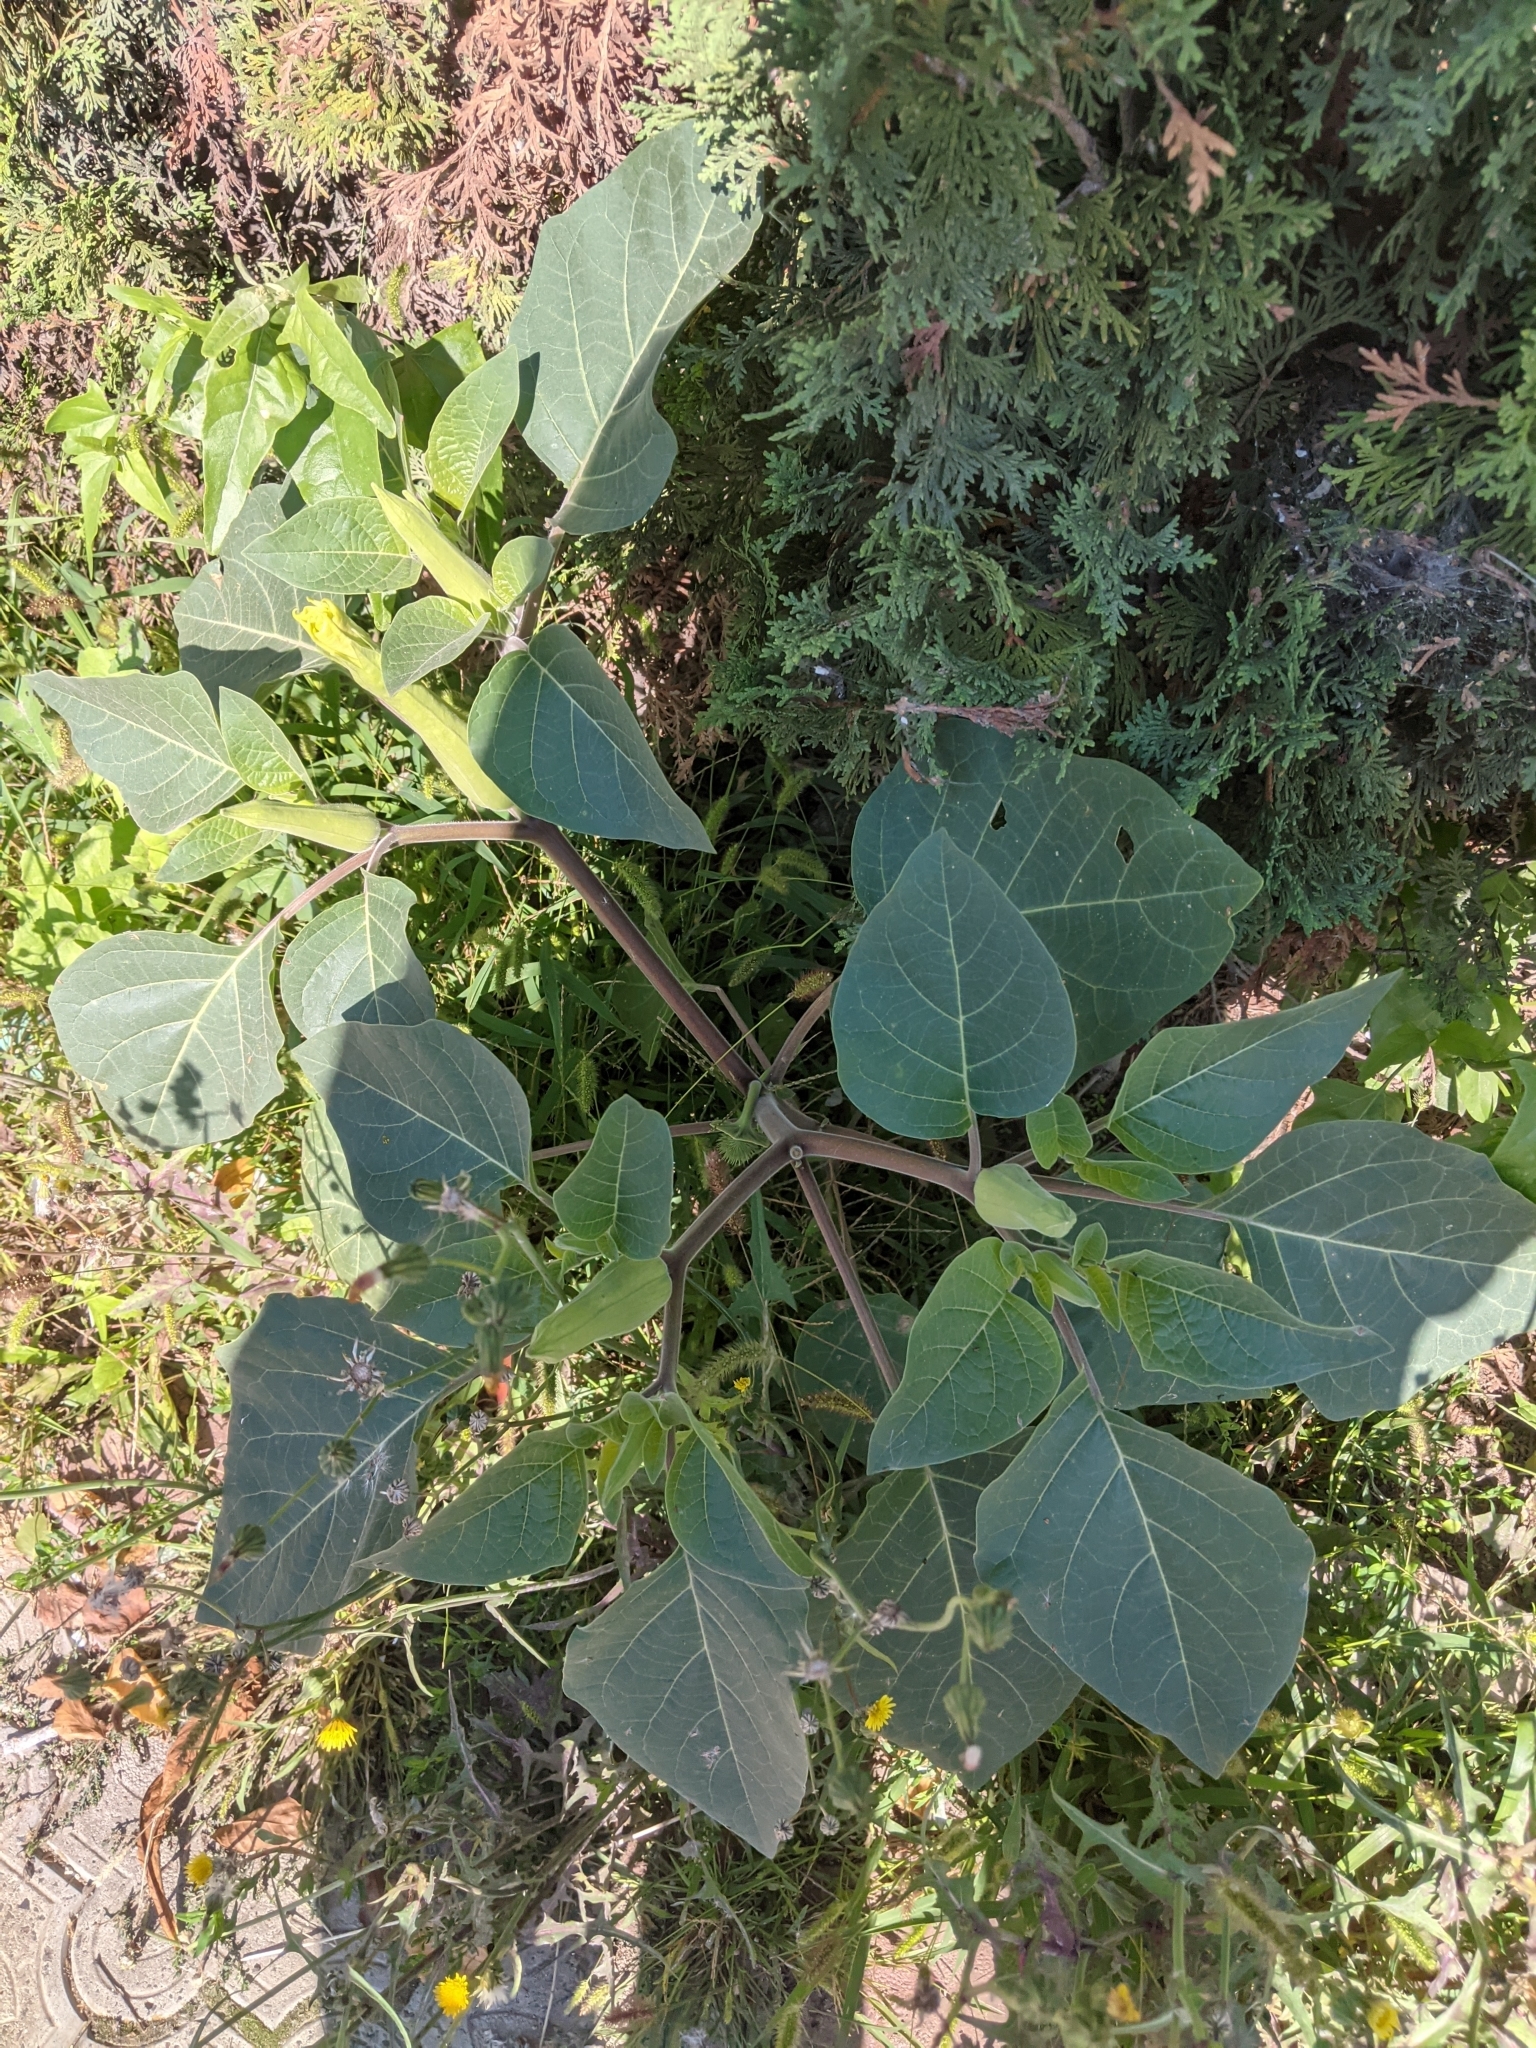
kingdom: Plantae
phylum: Tracheophyta
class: Magnoliopsida
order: Solanales
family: Solanaceae
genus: Datura
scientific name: Datura wrightii
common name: Sacred thorn-apple
